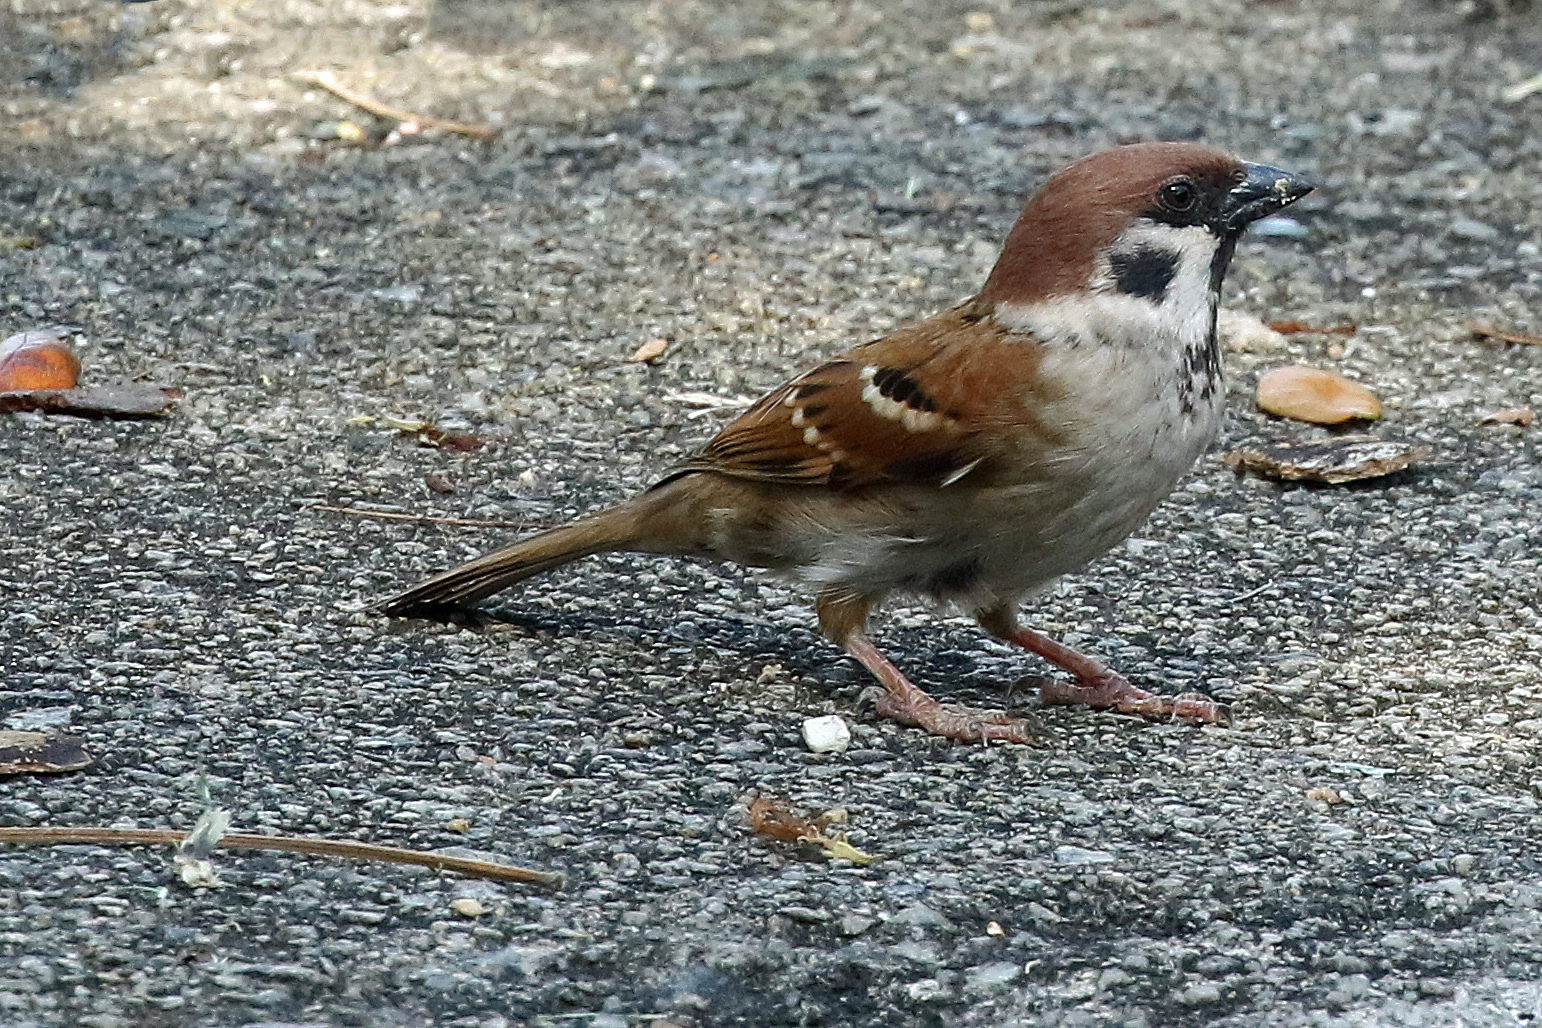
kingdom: Animalia
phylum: Chordata
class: Aves
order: Passeriformes
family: Passeridae
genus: Passer
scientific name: Passer montanus
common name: Eurasian tree sparrow
